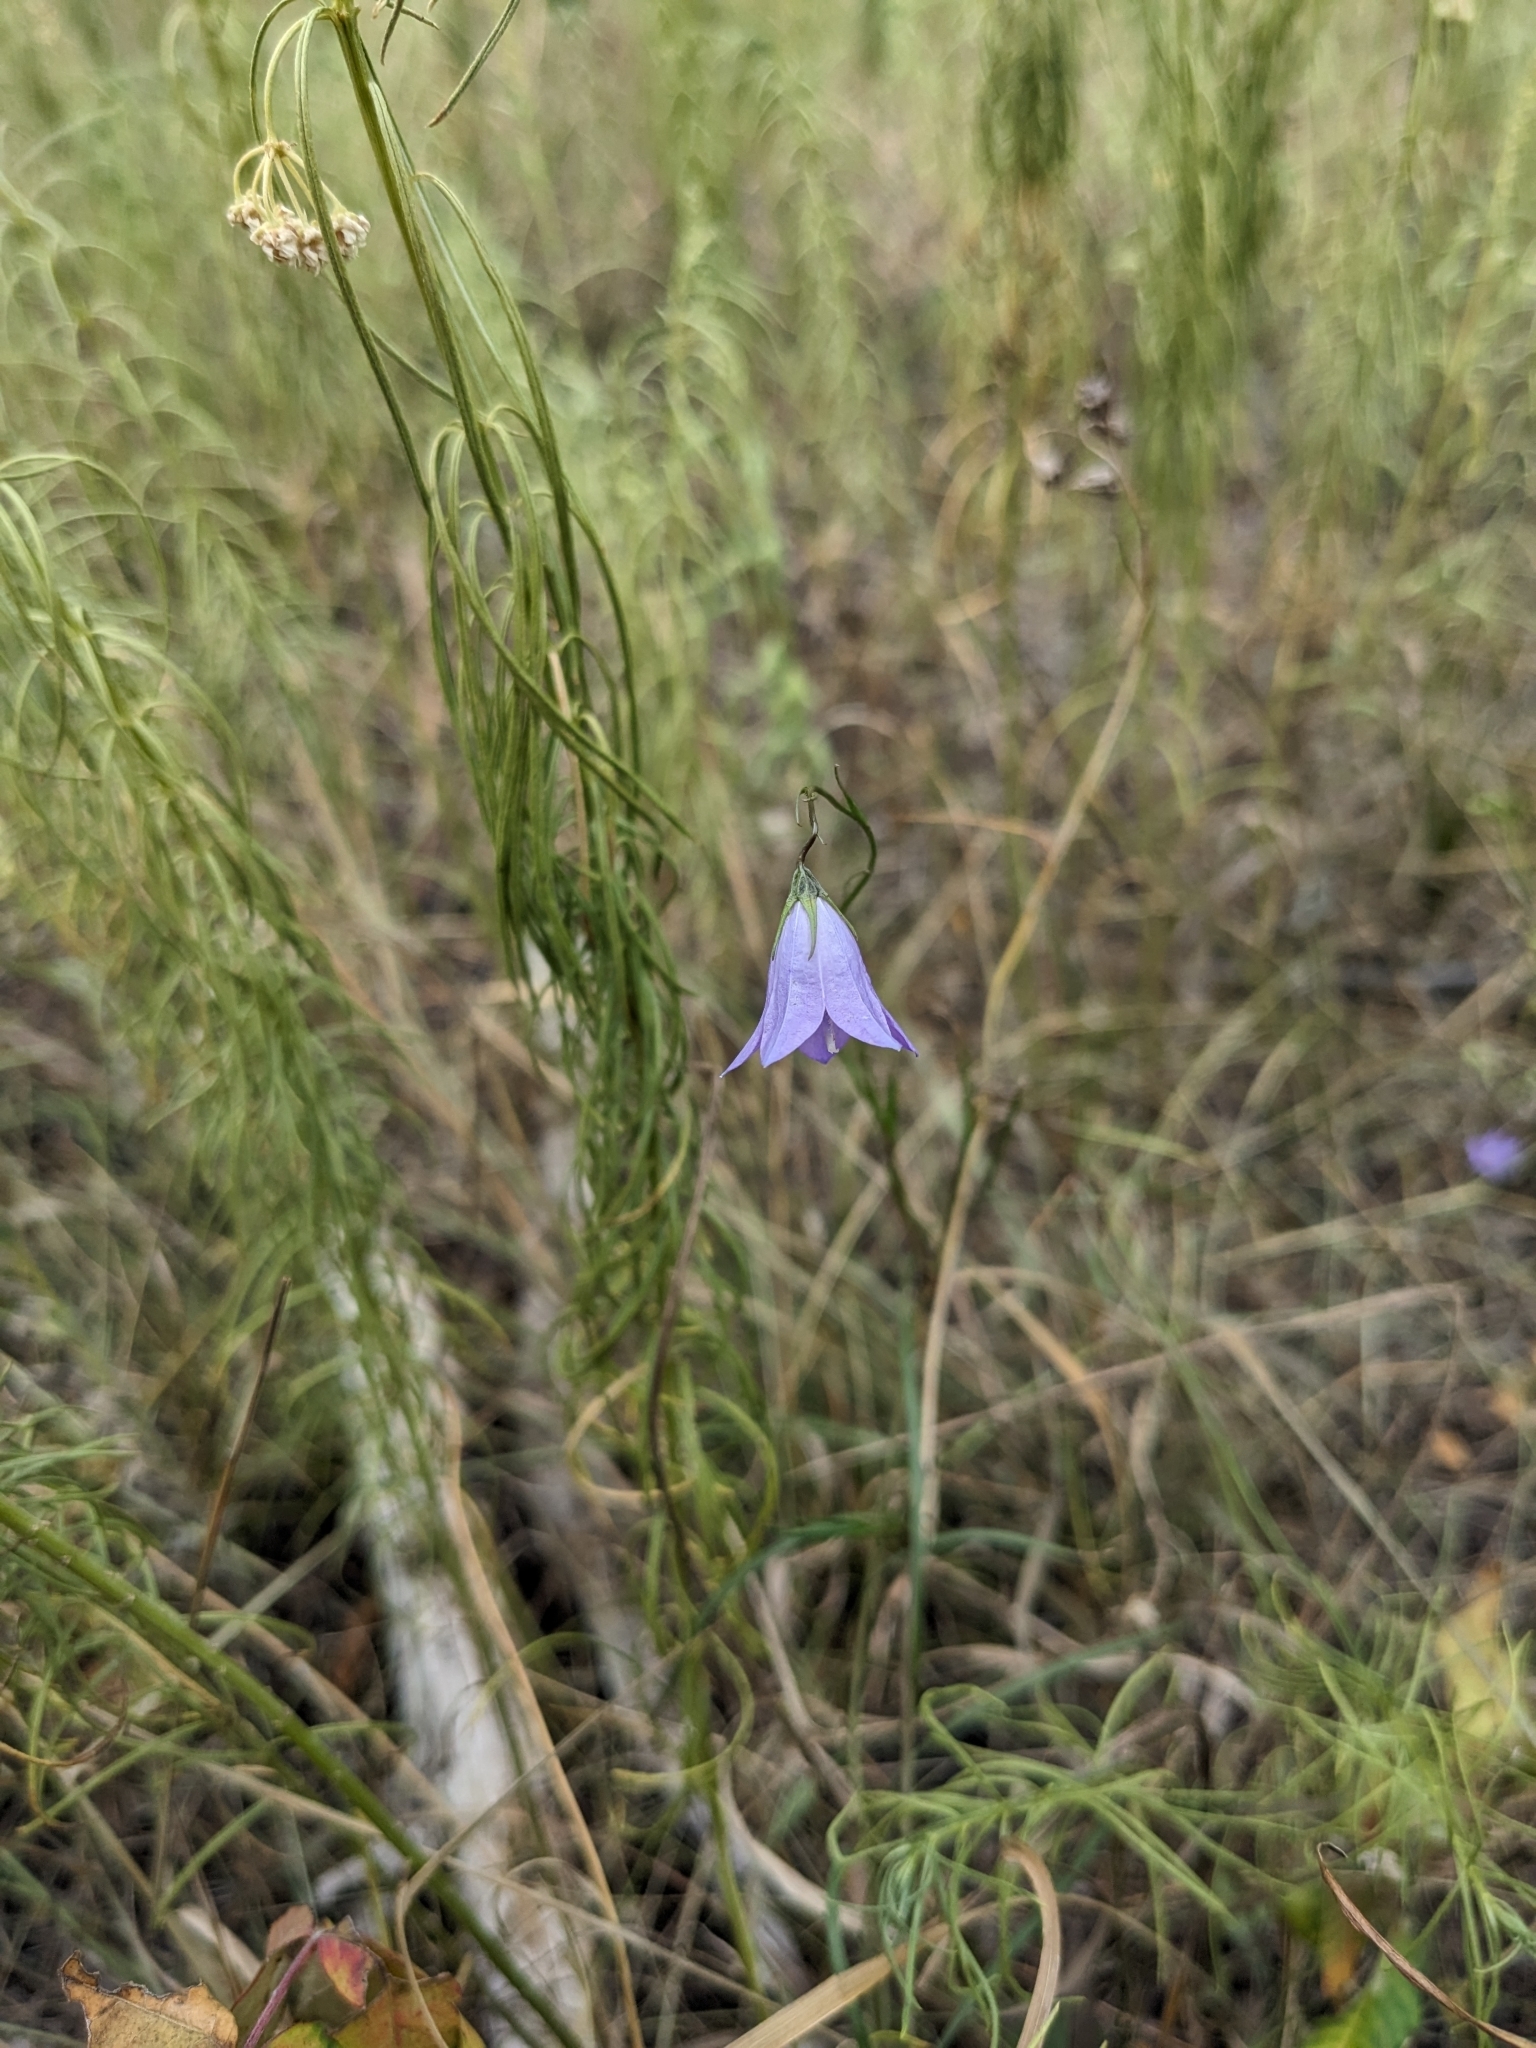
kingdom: Plantae
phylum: Tracheophyta
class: Magnoliopsida
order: Asterales
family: Campanulaceae
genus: Campanula
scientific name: Campanula intercedens
